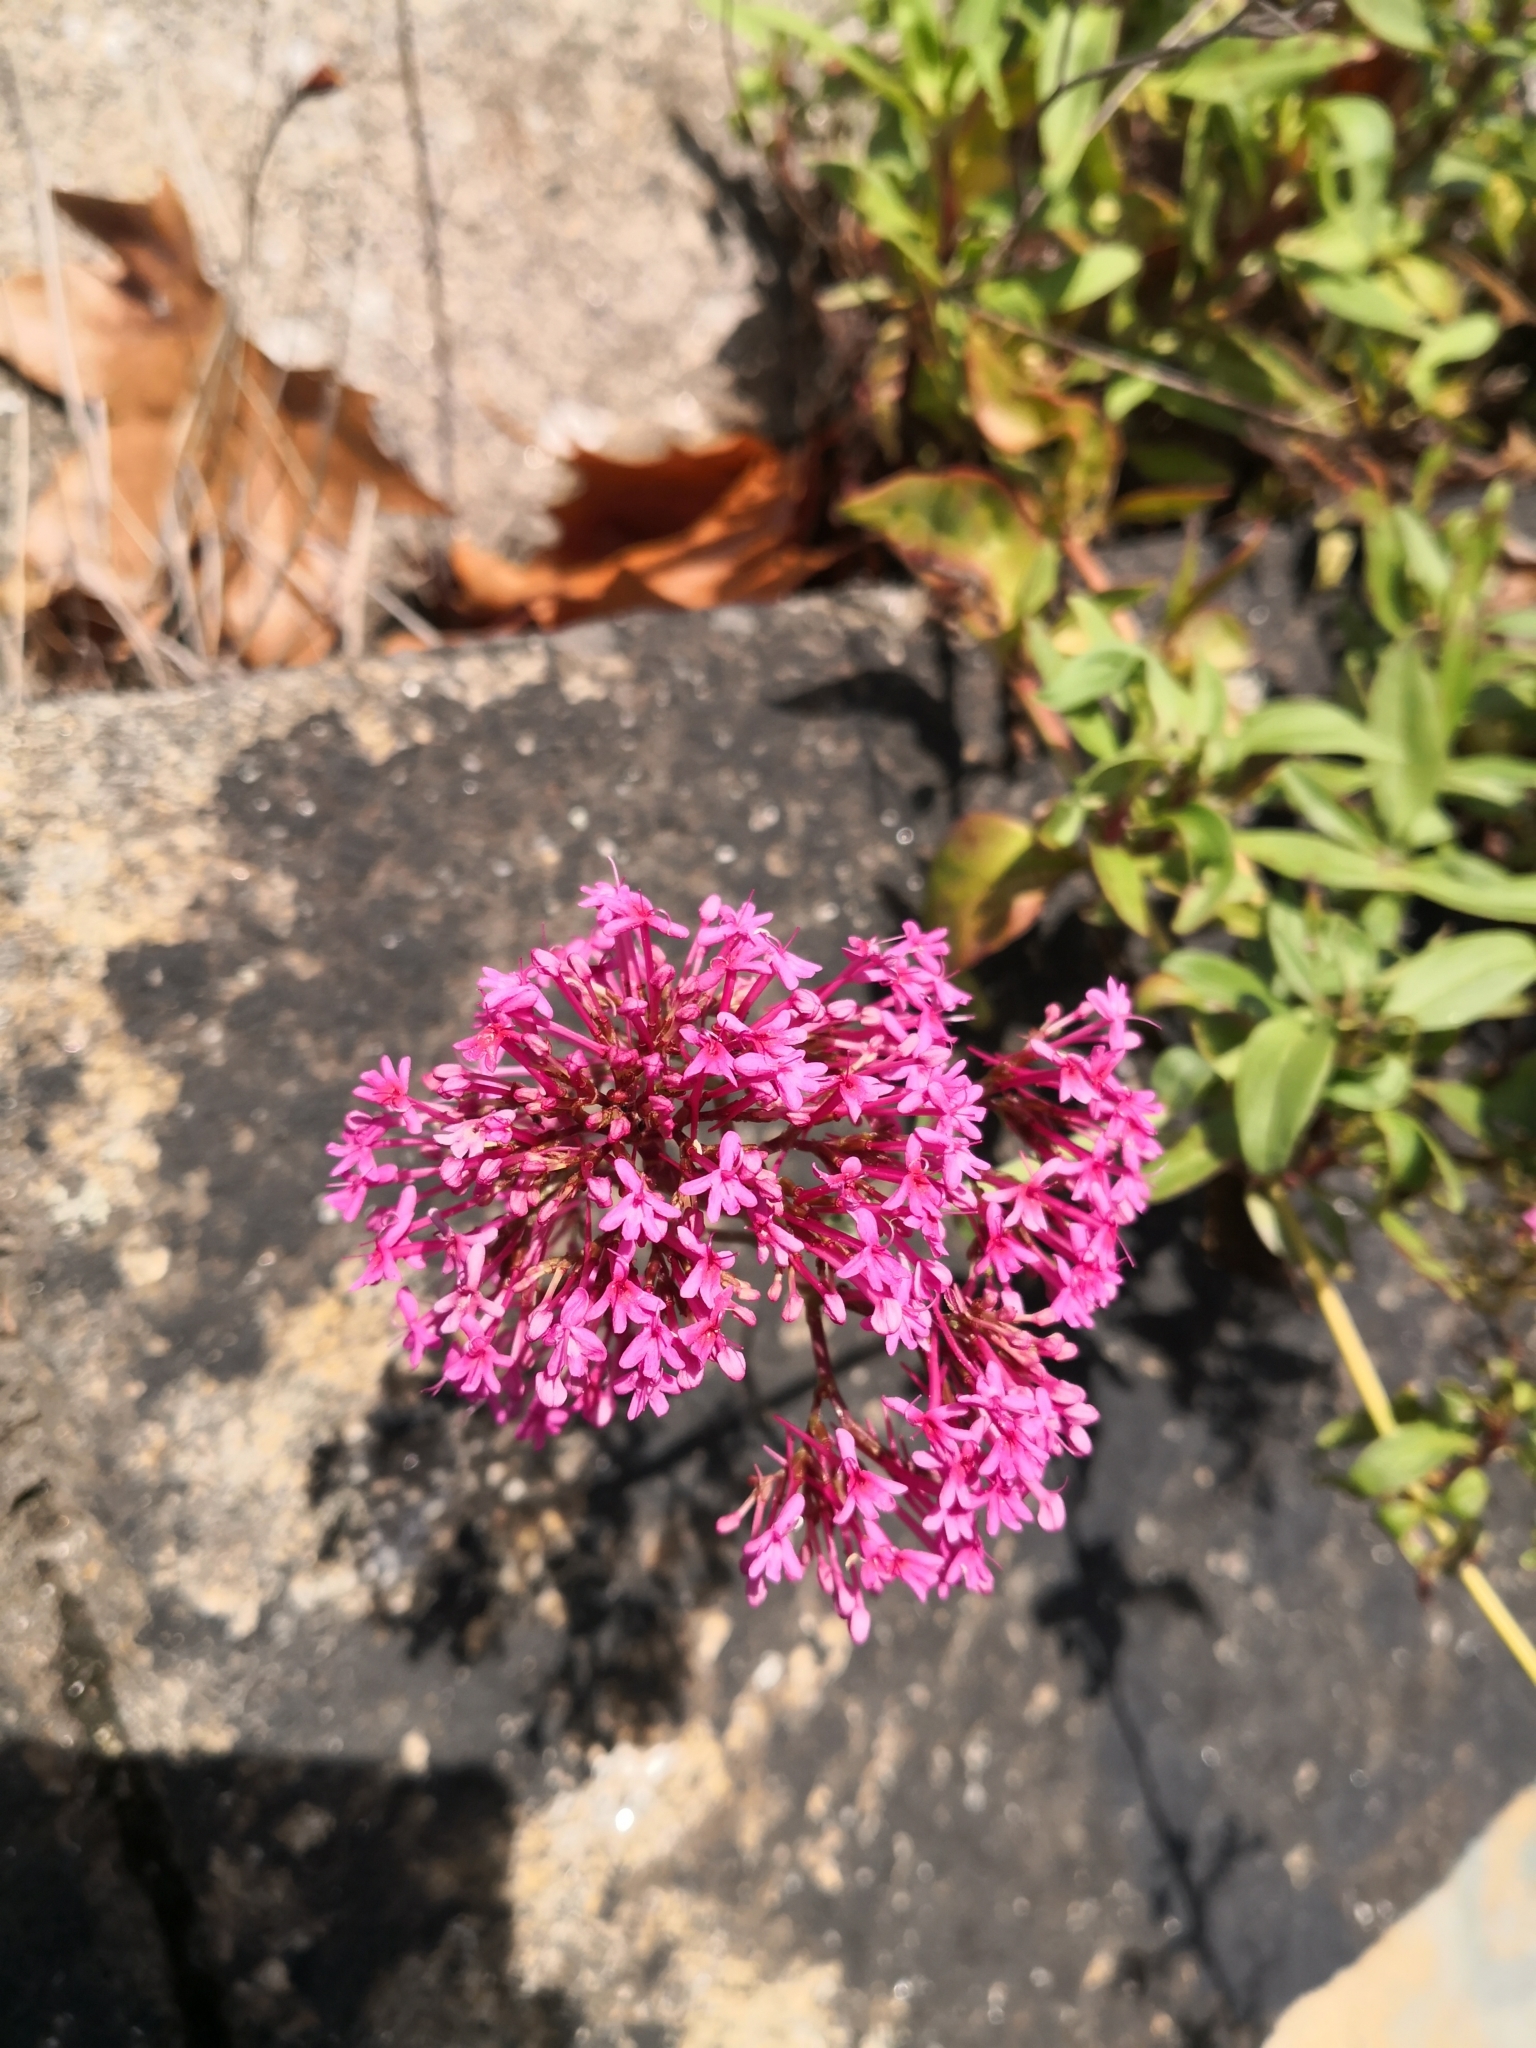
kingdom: Plantae
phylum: Tracheophyta
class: Magnoliopsida
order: Dipsacales
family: Caprifoliaceae
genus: Centranthus
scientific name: Centranthus ruber
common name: Red valerian
